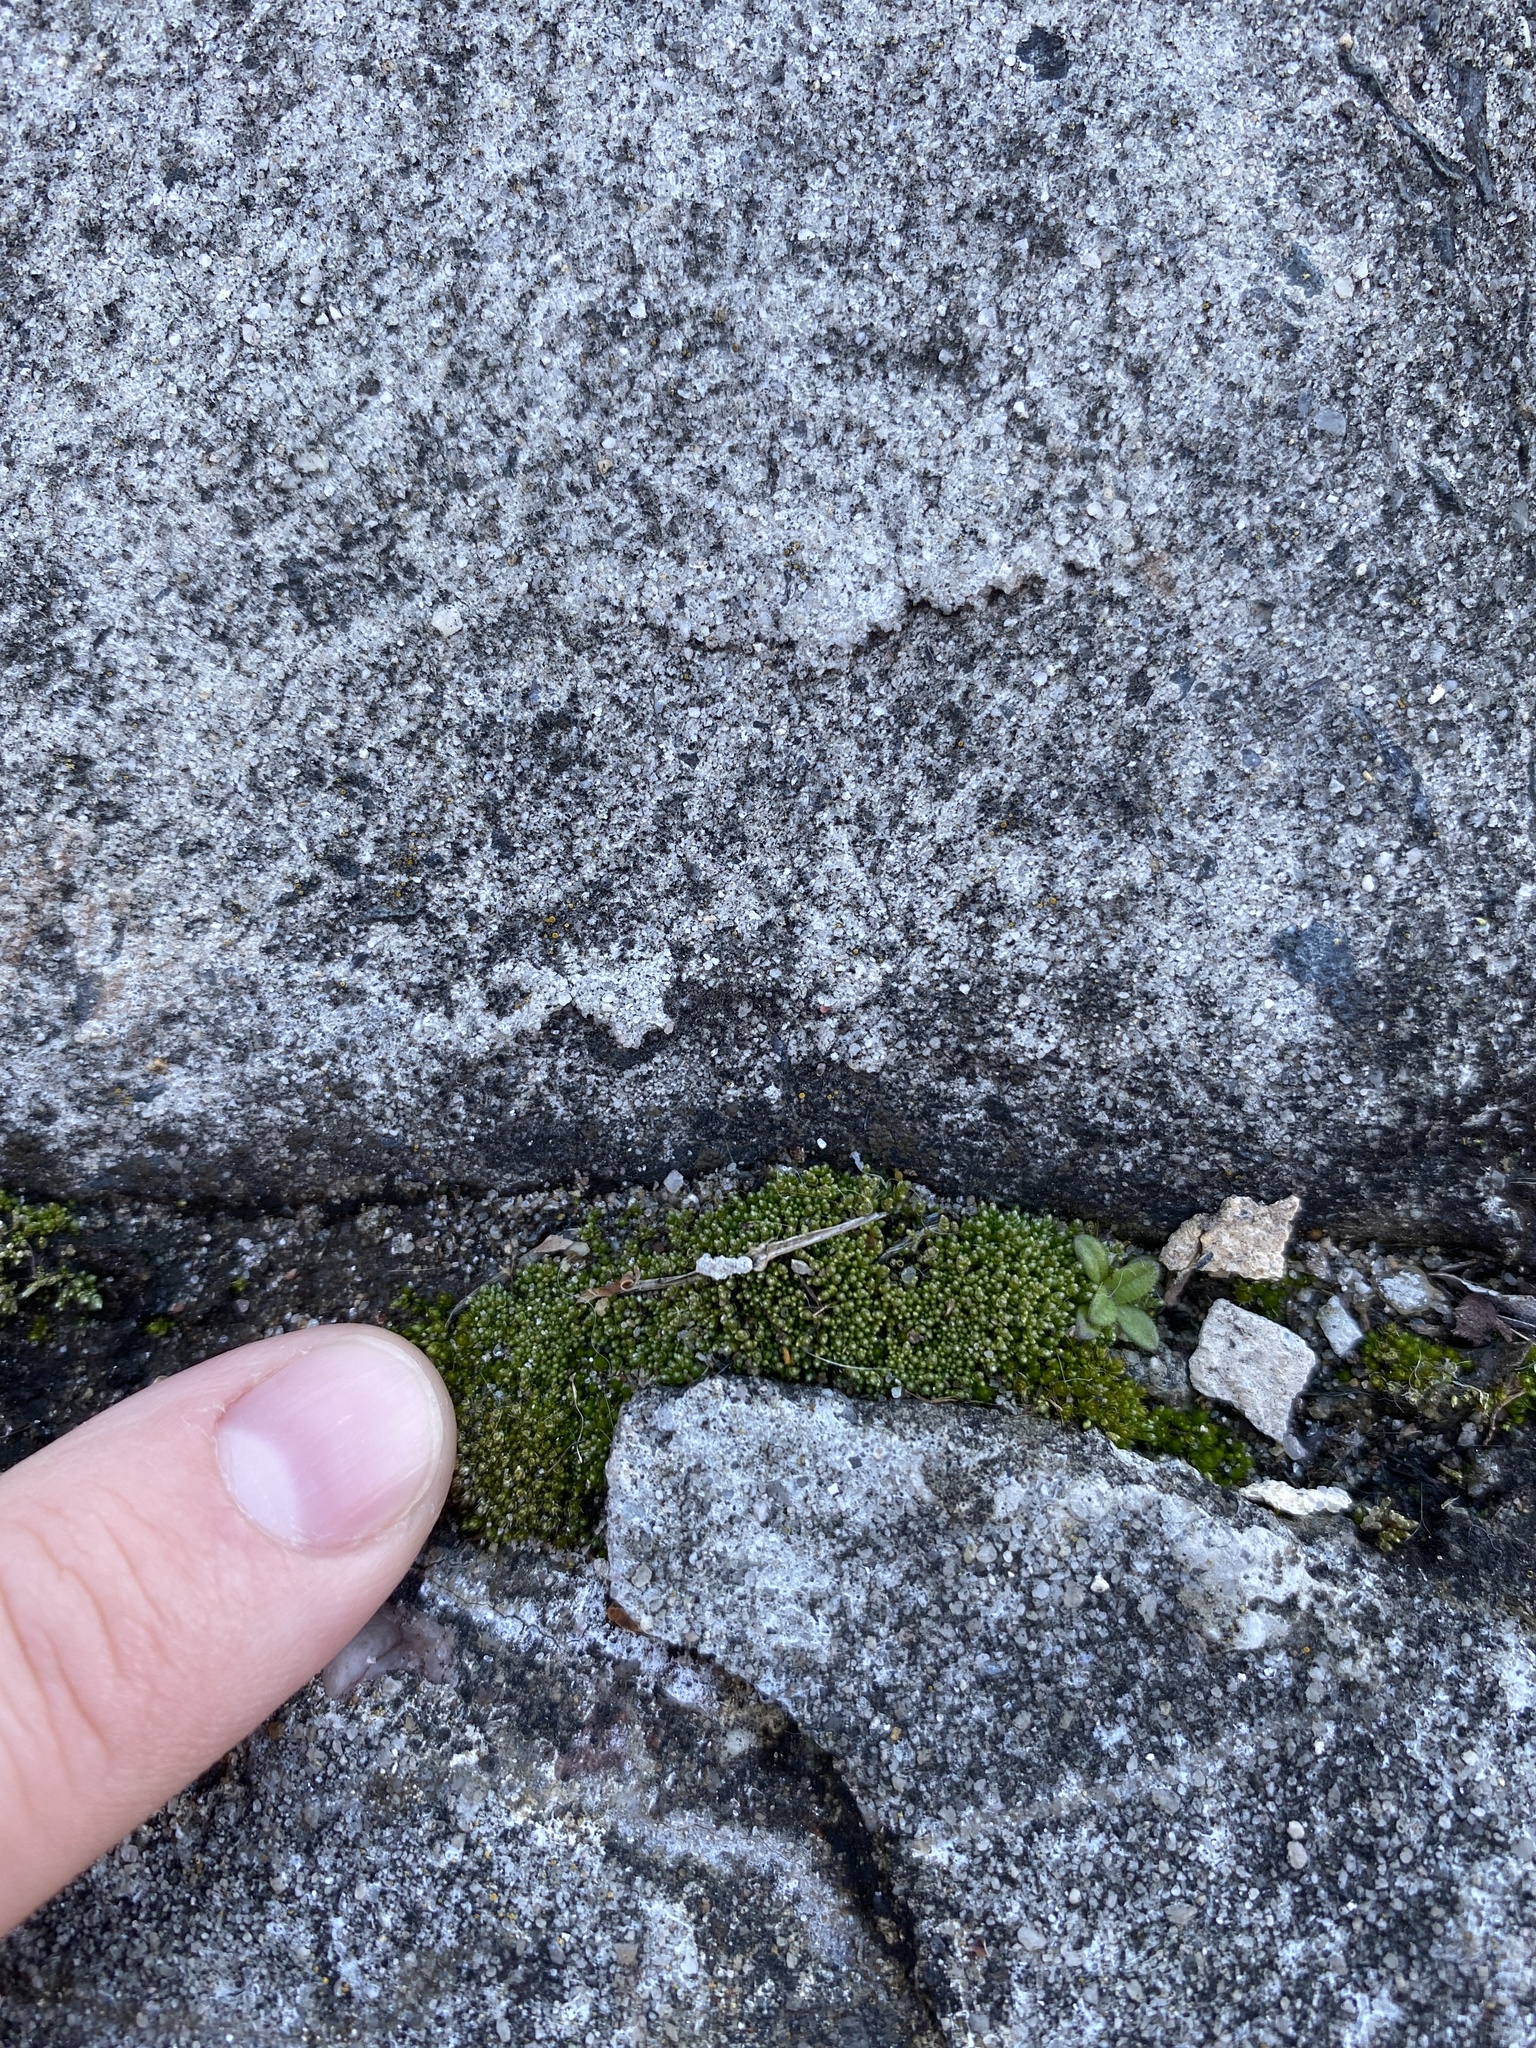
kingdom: Plantae
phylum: Bryophyta
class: Bryopsida
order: Bryales
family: Bryaceae
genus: Bryum
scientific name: Bryum argenteum
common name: Silver-moss
